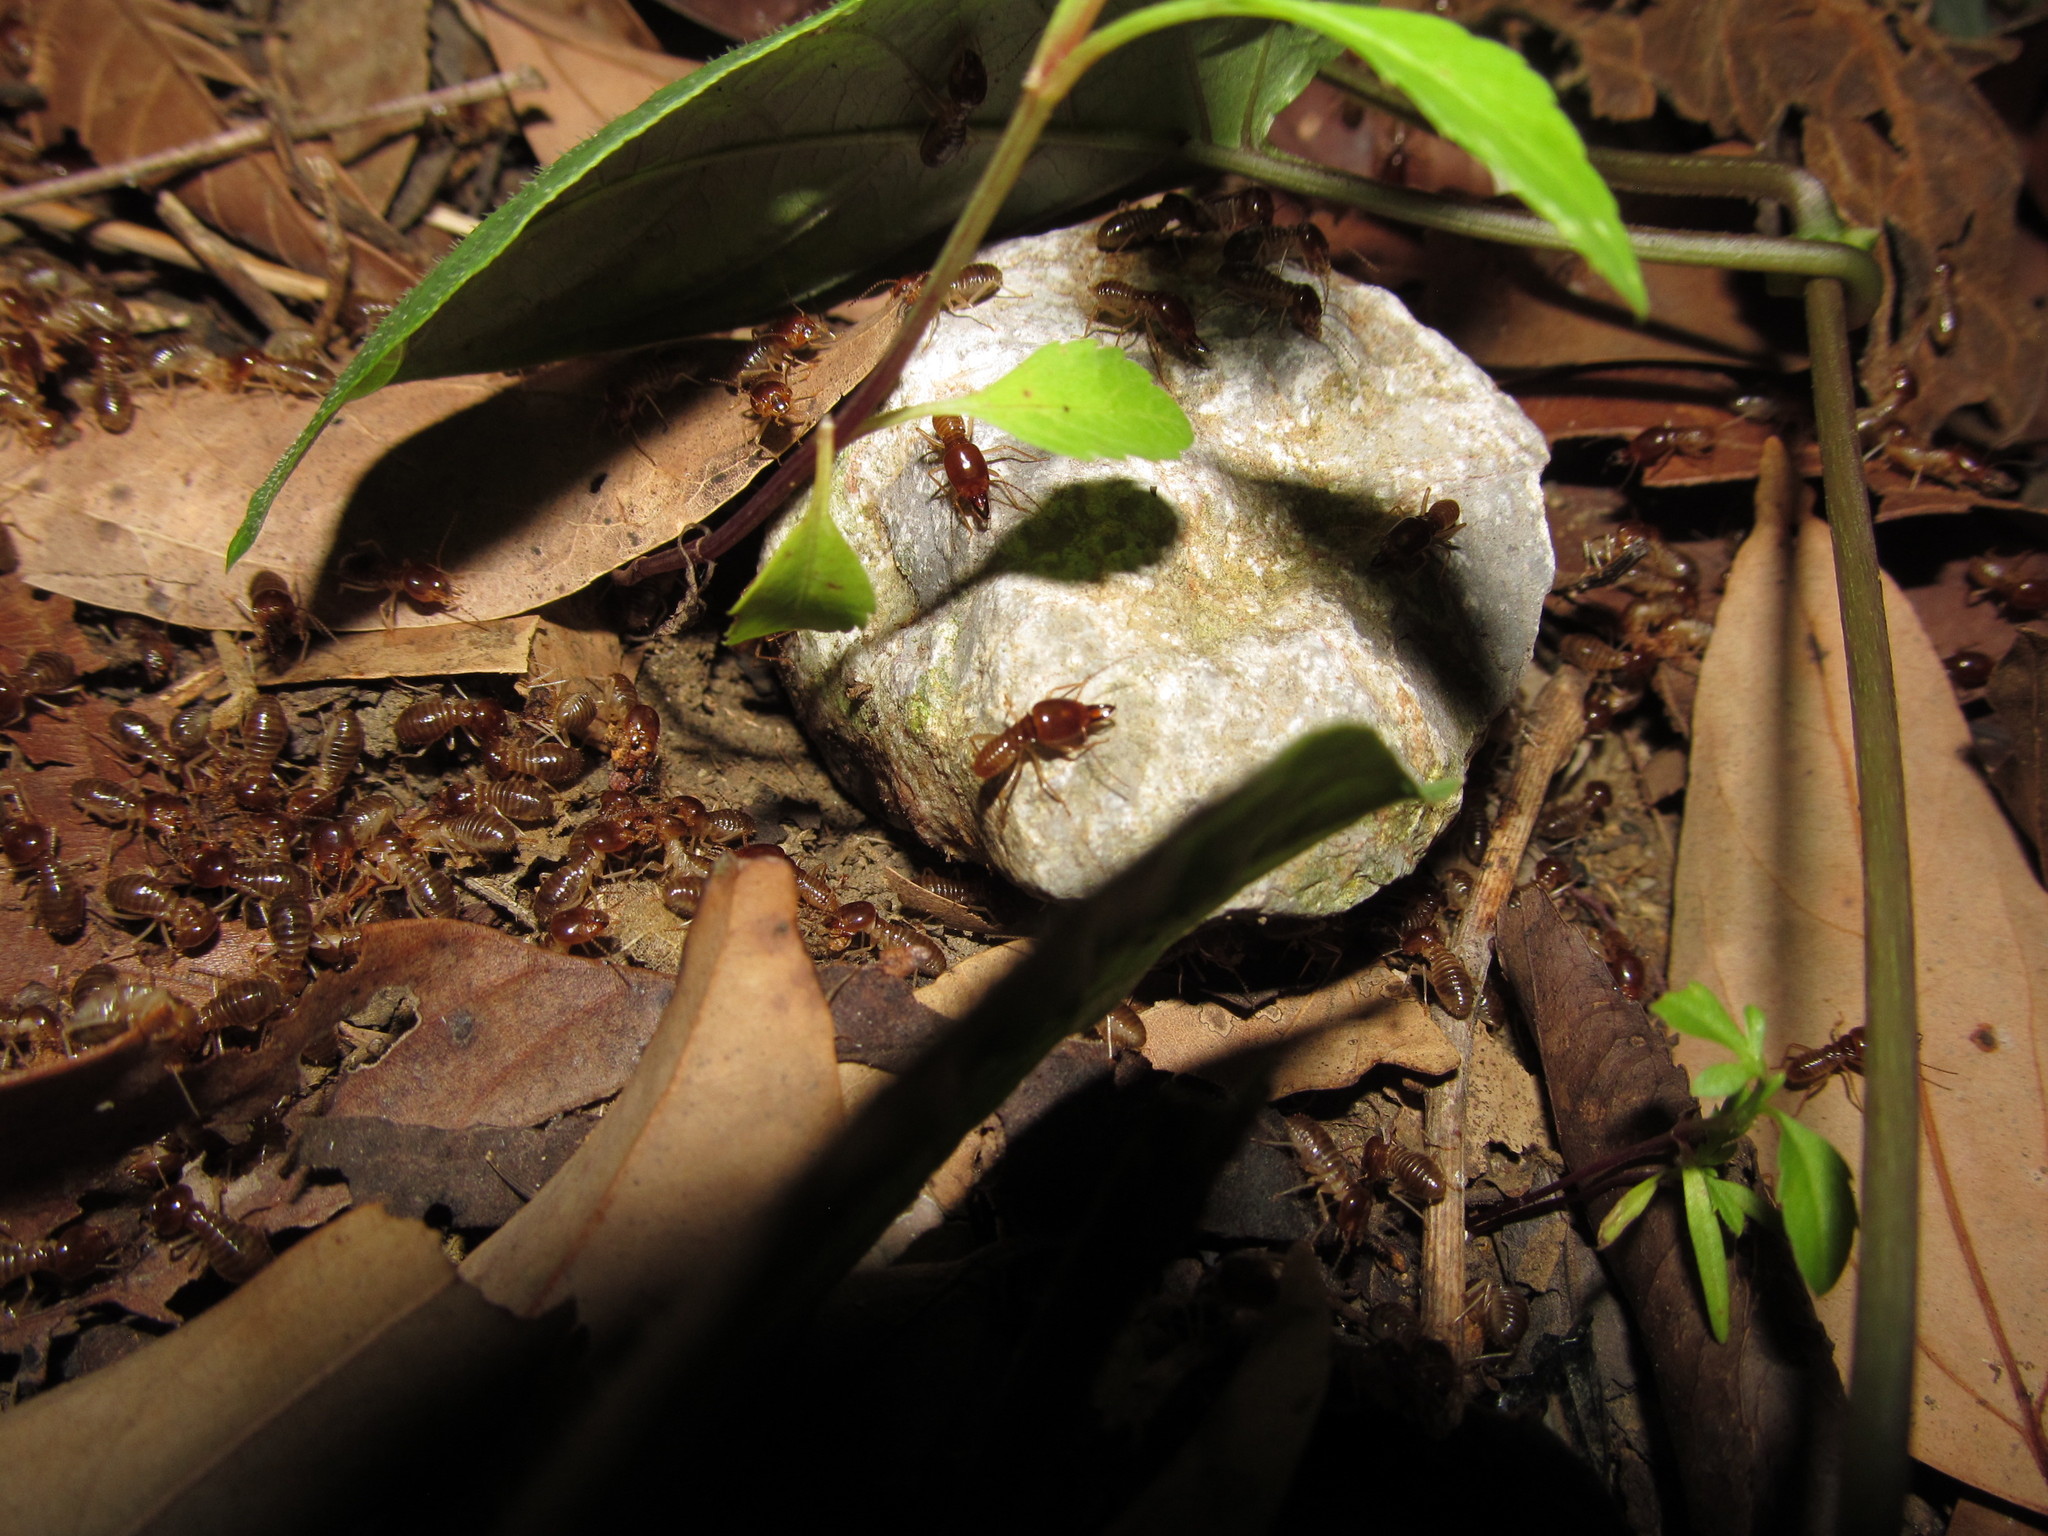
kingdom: Animalia
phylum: Arthropoda
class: Insecta
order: Blattodea
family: Termitidae
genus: Macrotermes
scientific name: Macrotermes annandalei
